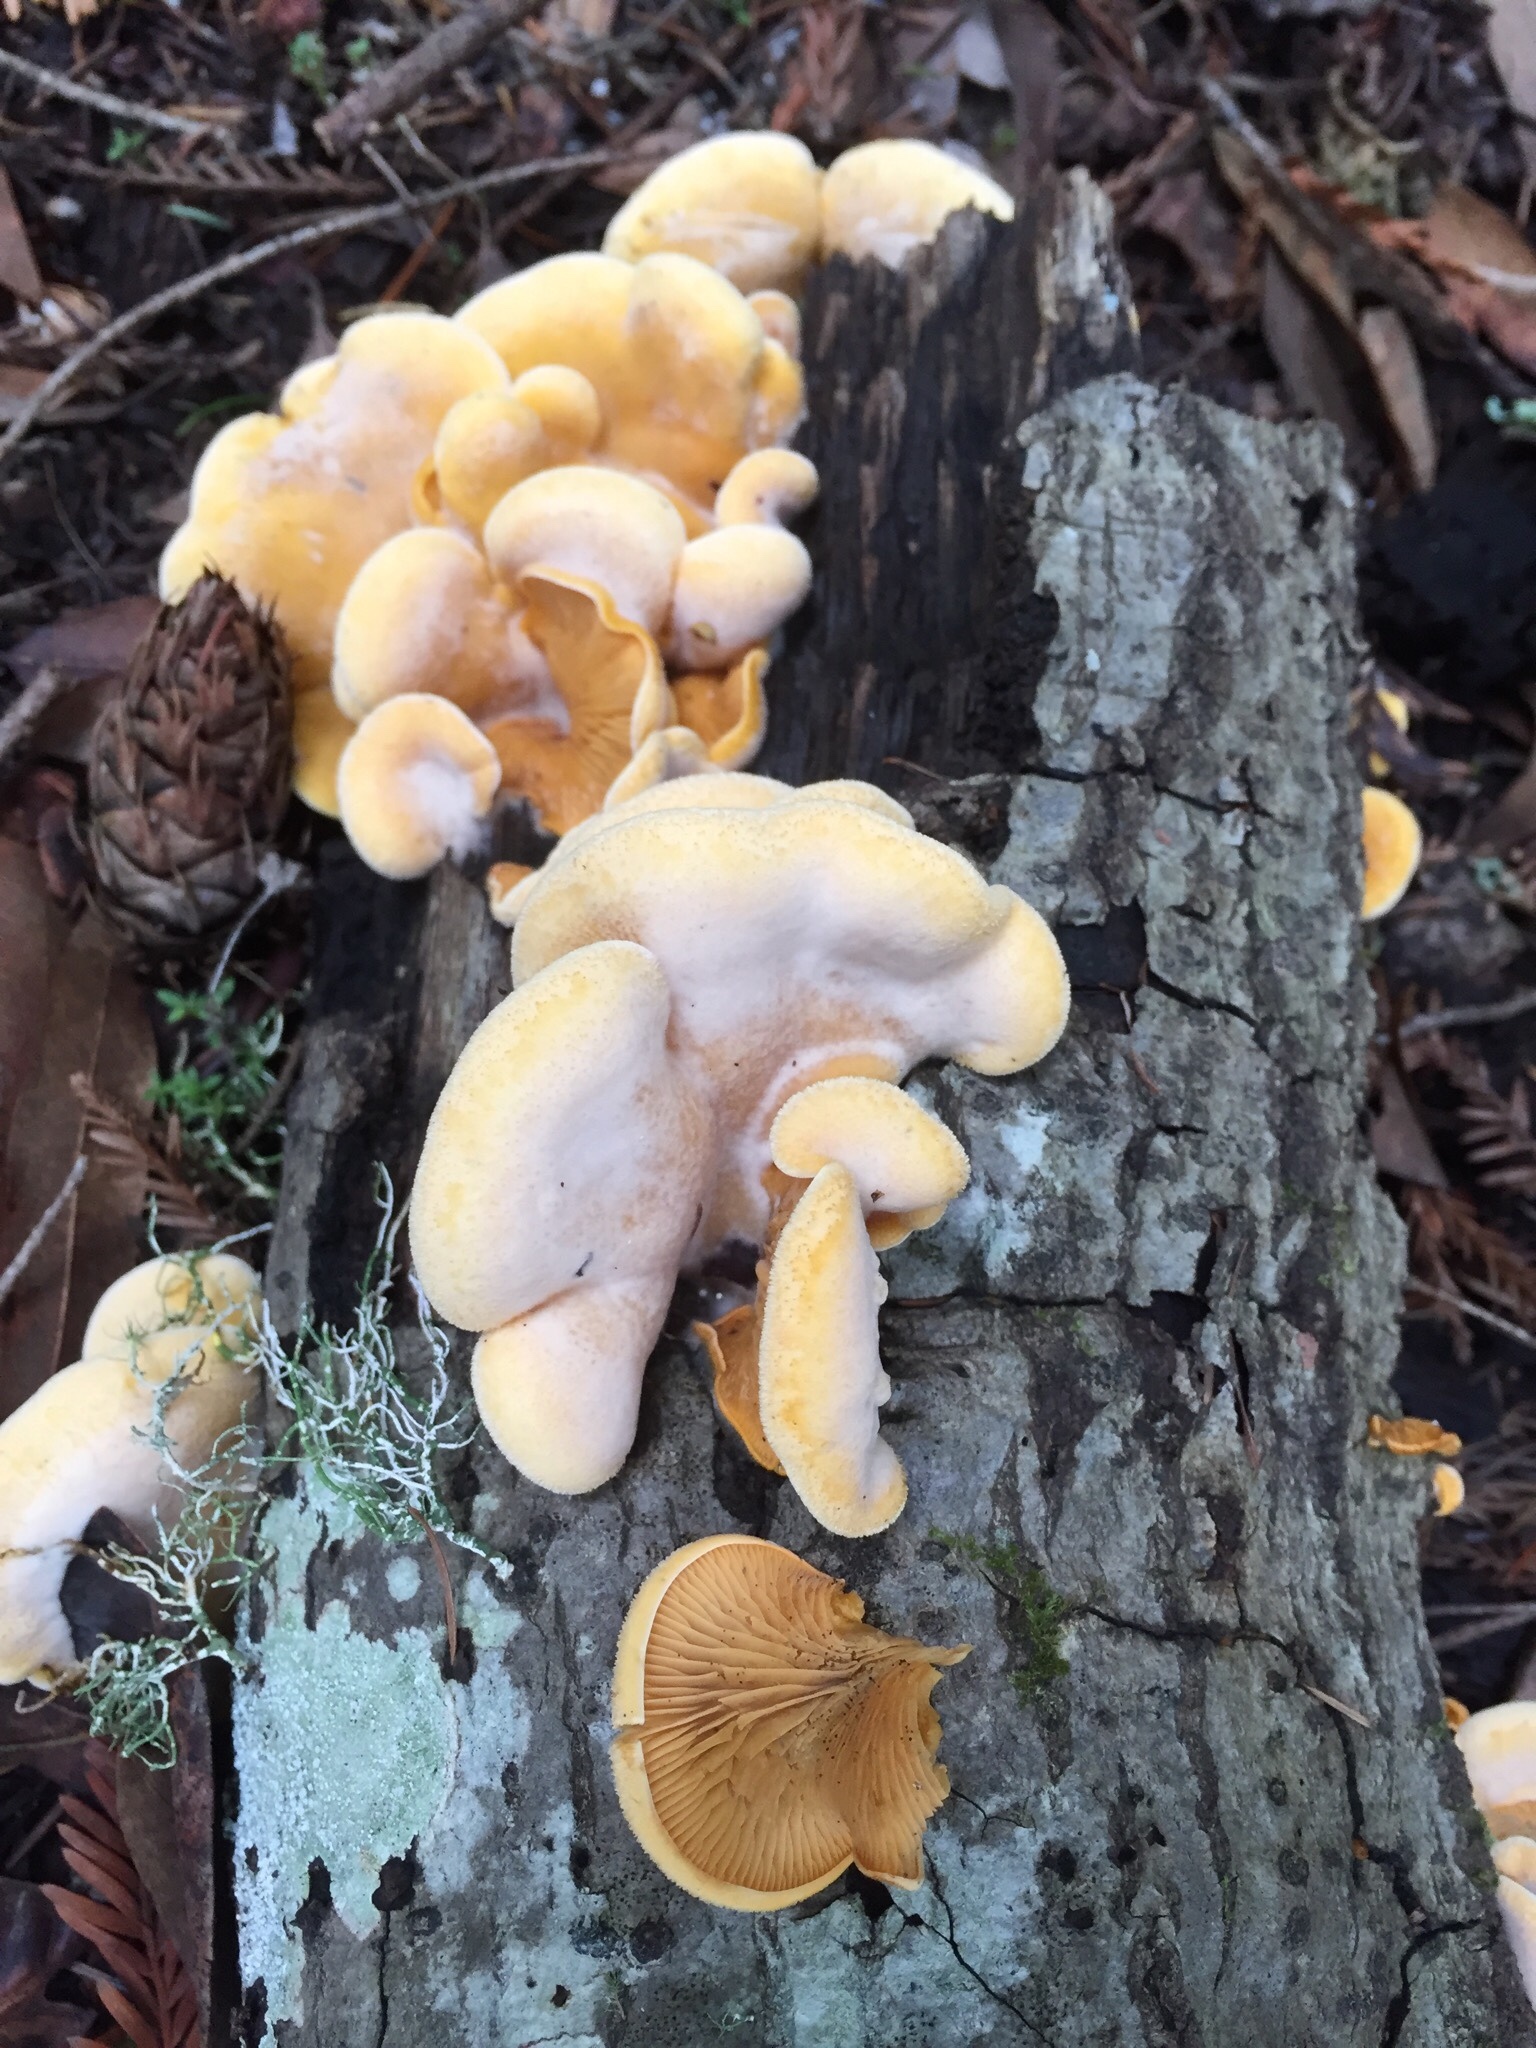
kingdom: Fungi
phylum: Basidiomycota
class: Agaricomycetes
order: Agaricales
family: Phyllotopsidaceae
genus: Phyllotopsis
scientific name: Phyllotopsis nidulans
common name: Orange mock oyster
